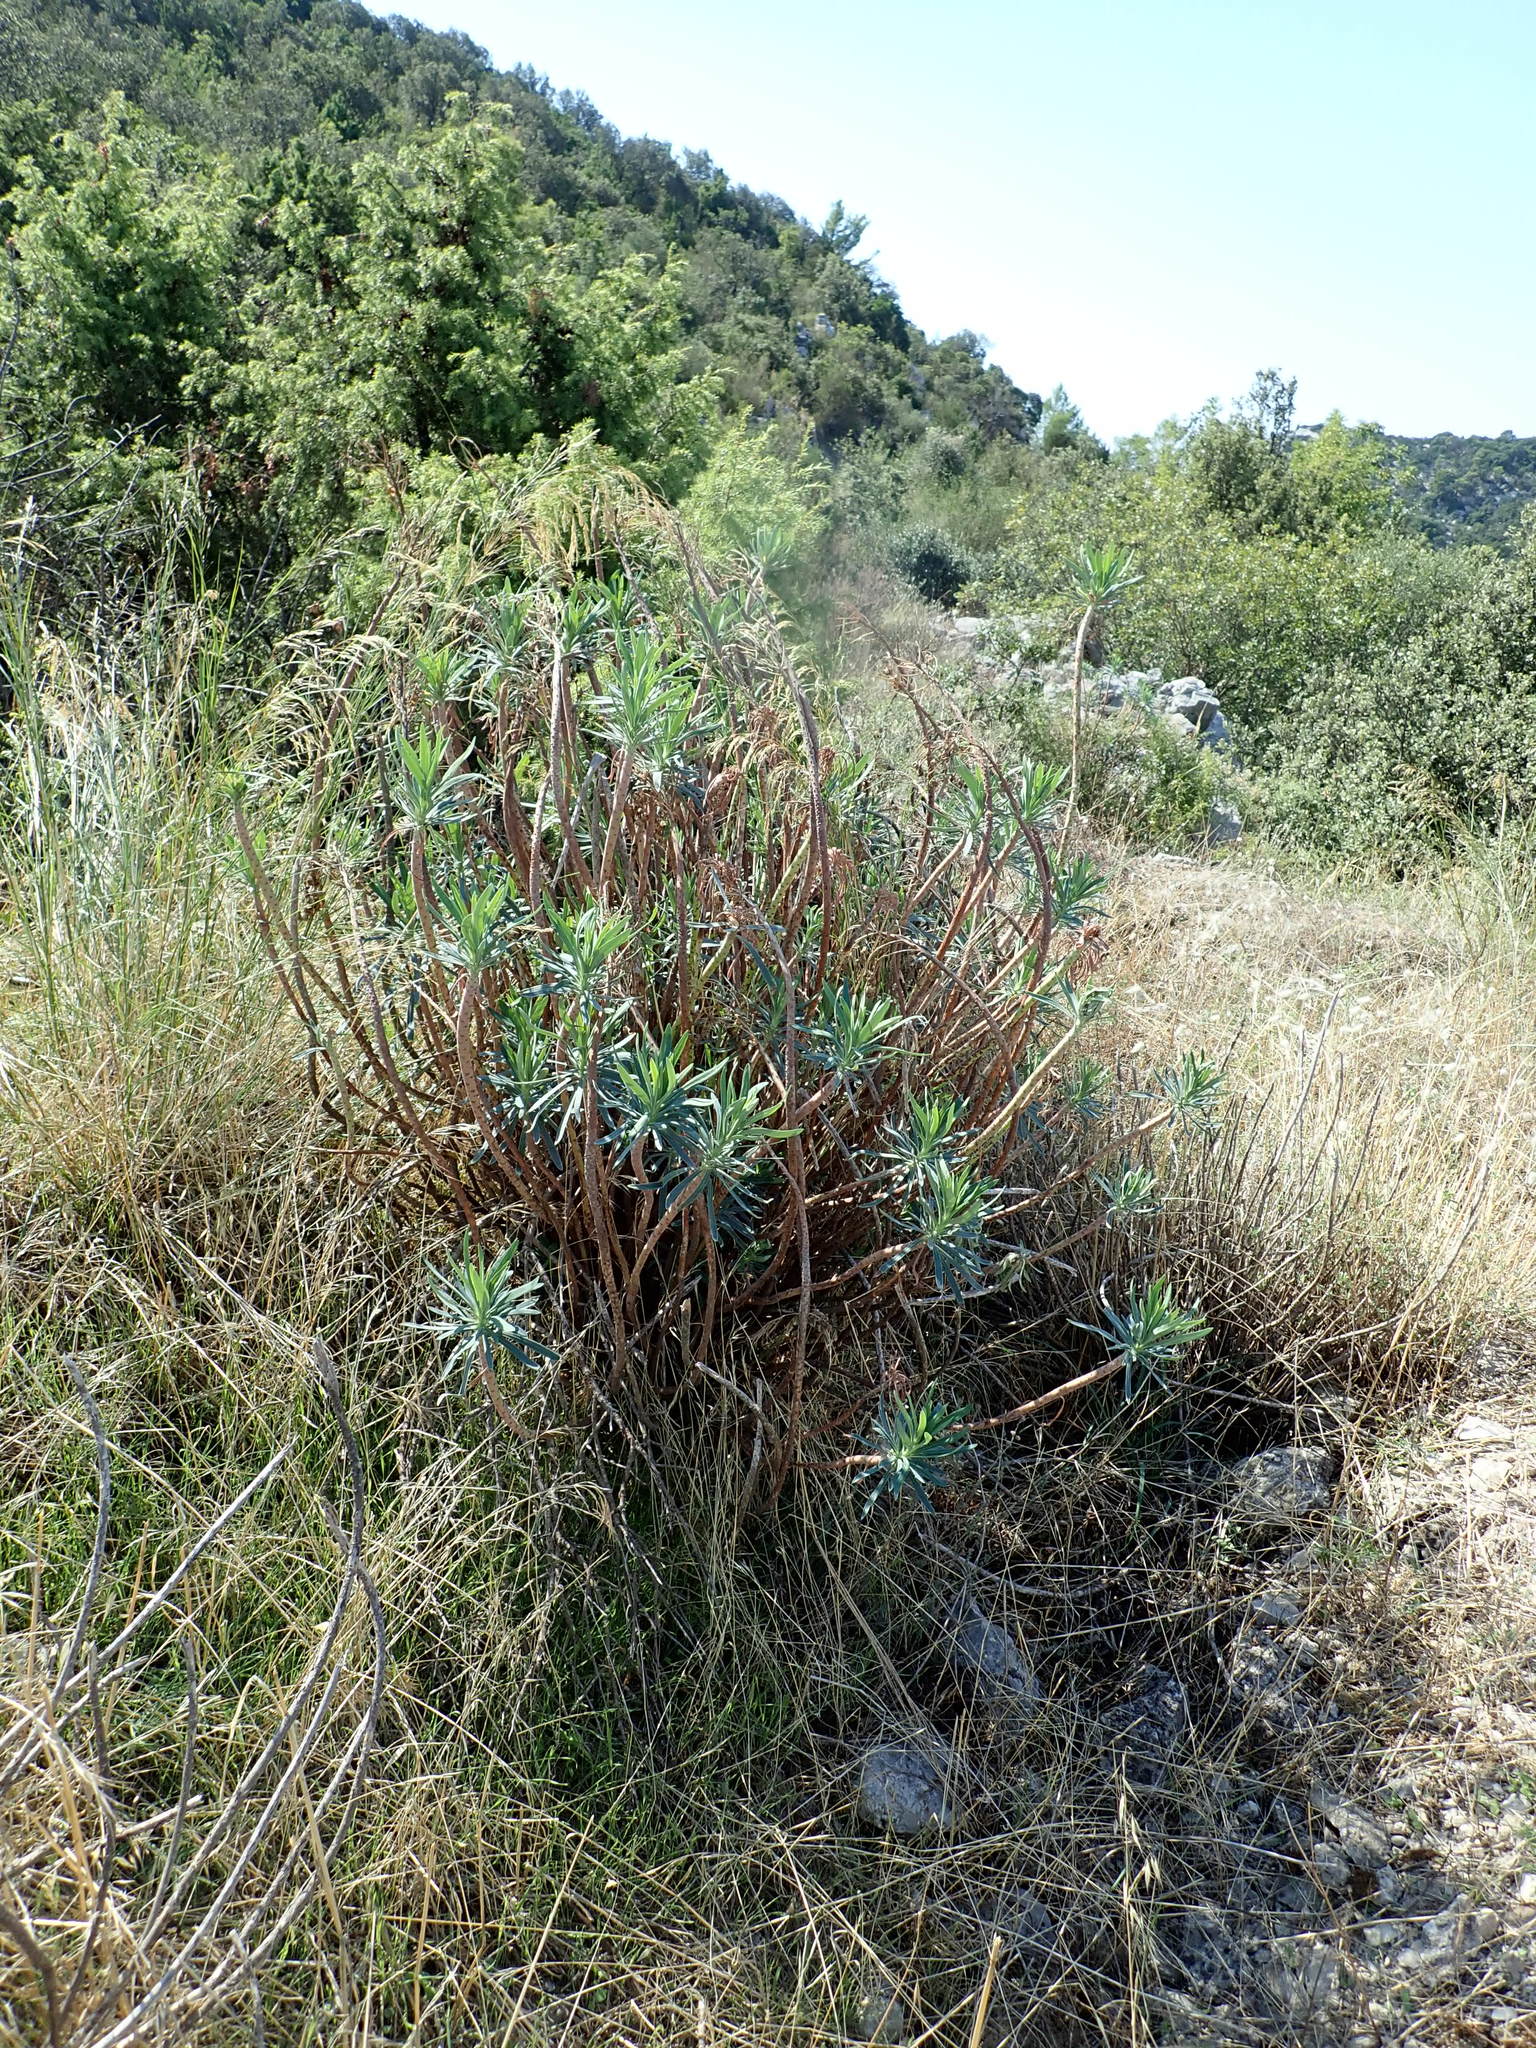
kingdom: Plantae
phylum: Tracheophyta
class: Magnoliopsida
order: Malpighiales
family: Euphorbiaceae
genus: Euphorbia
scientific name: Euphorbia characias
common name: Mediterranean spurge
